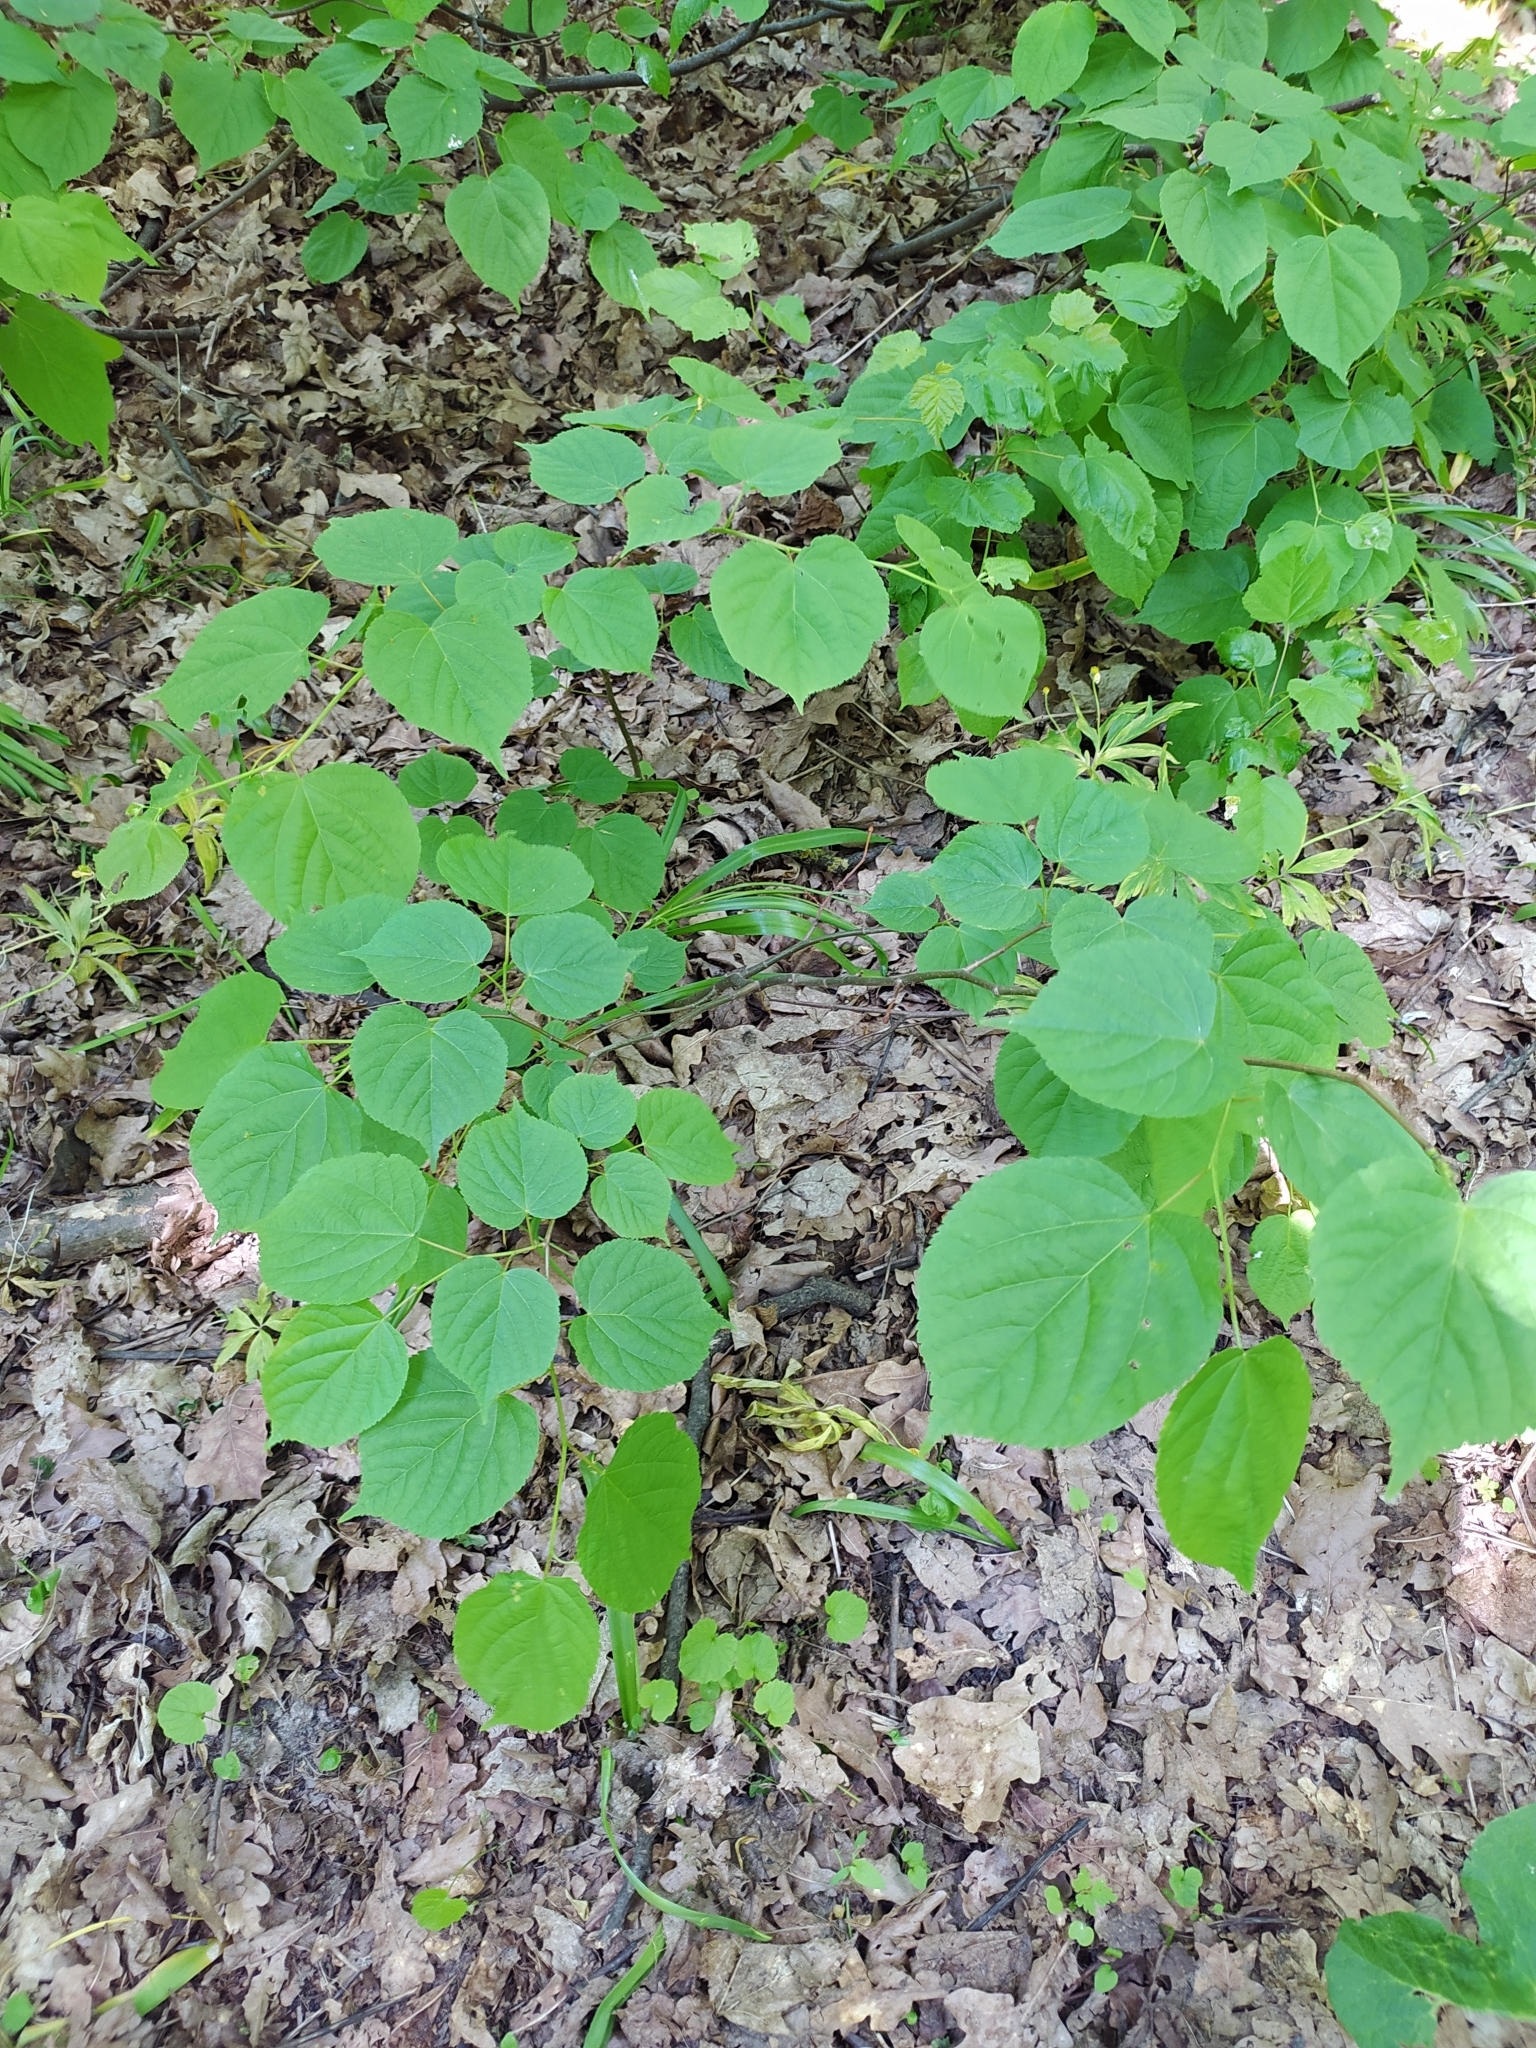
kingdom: Plantae
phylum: Tracheophyta
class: Magnoliopsida
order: Malvales
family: Malvaceae
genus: Tilia
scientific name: Tilia cordata
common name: Small-leaved lime
